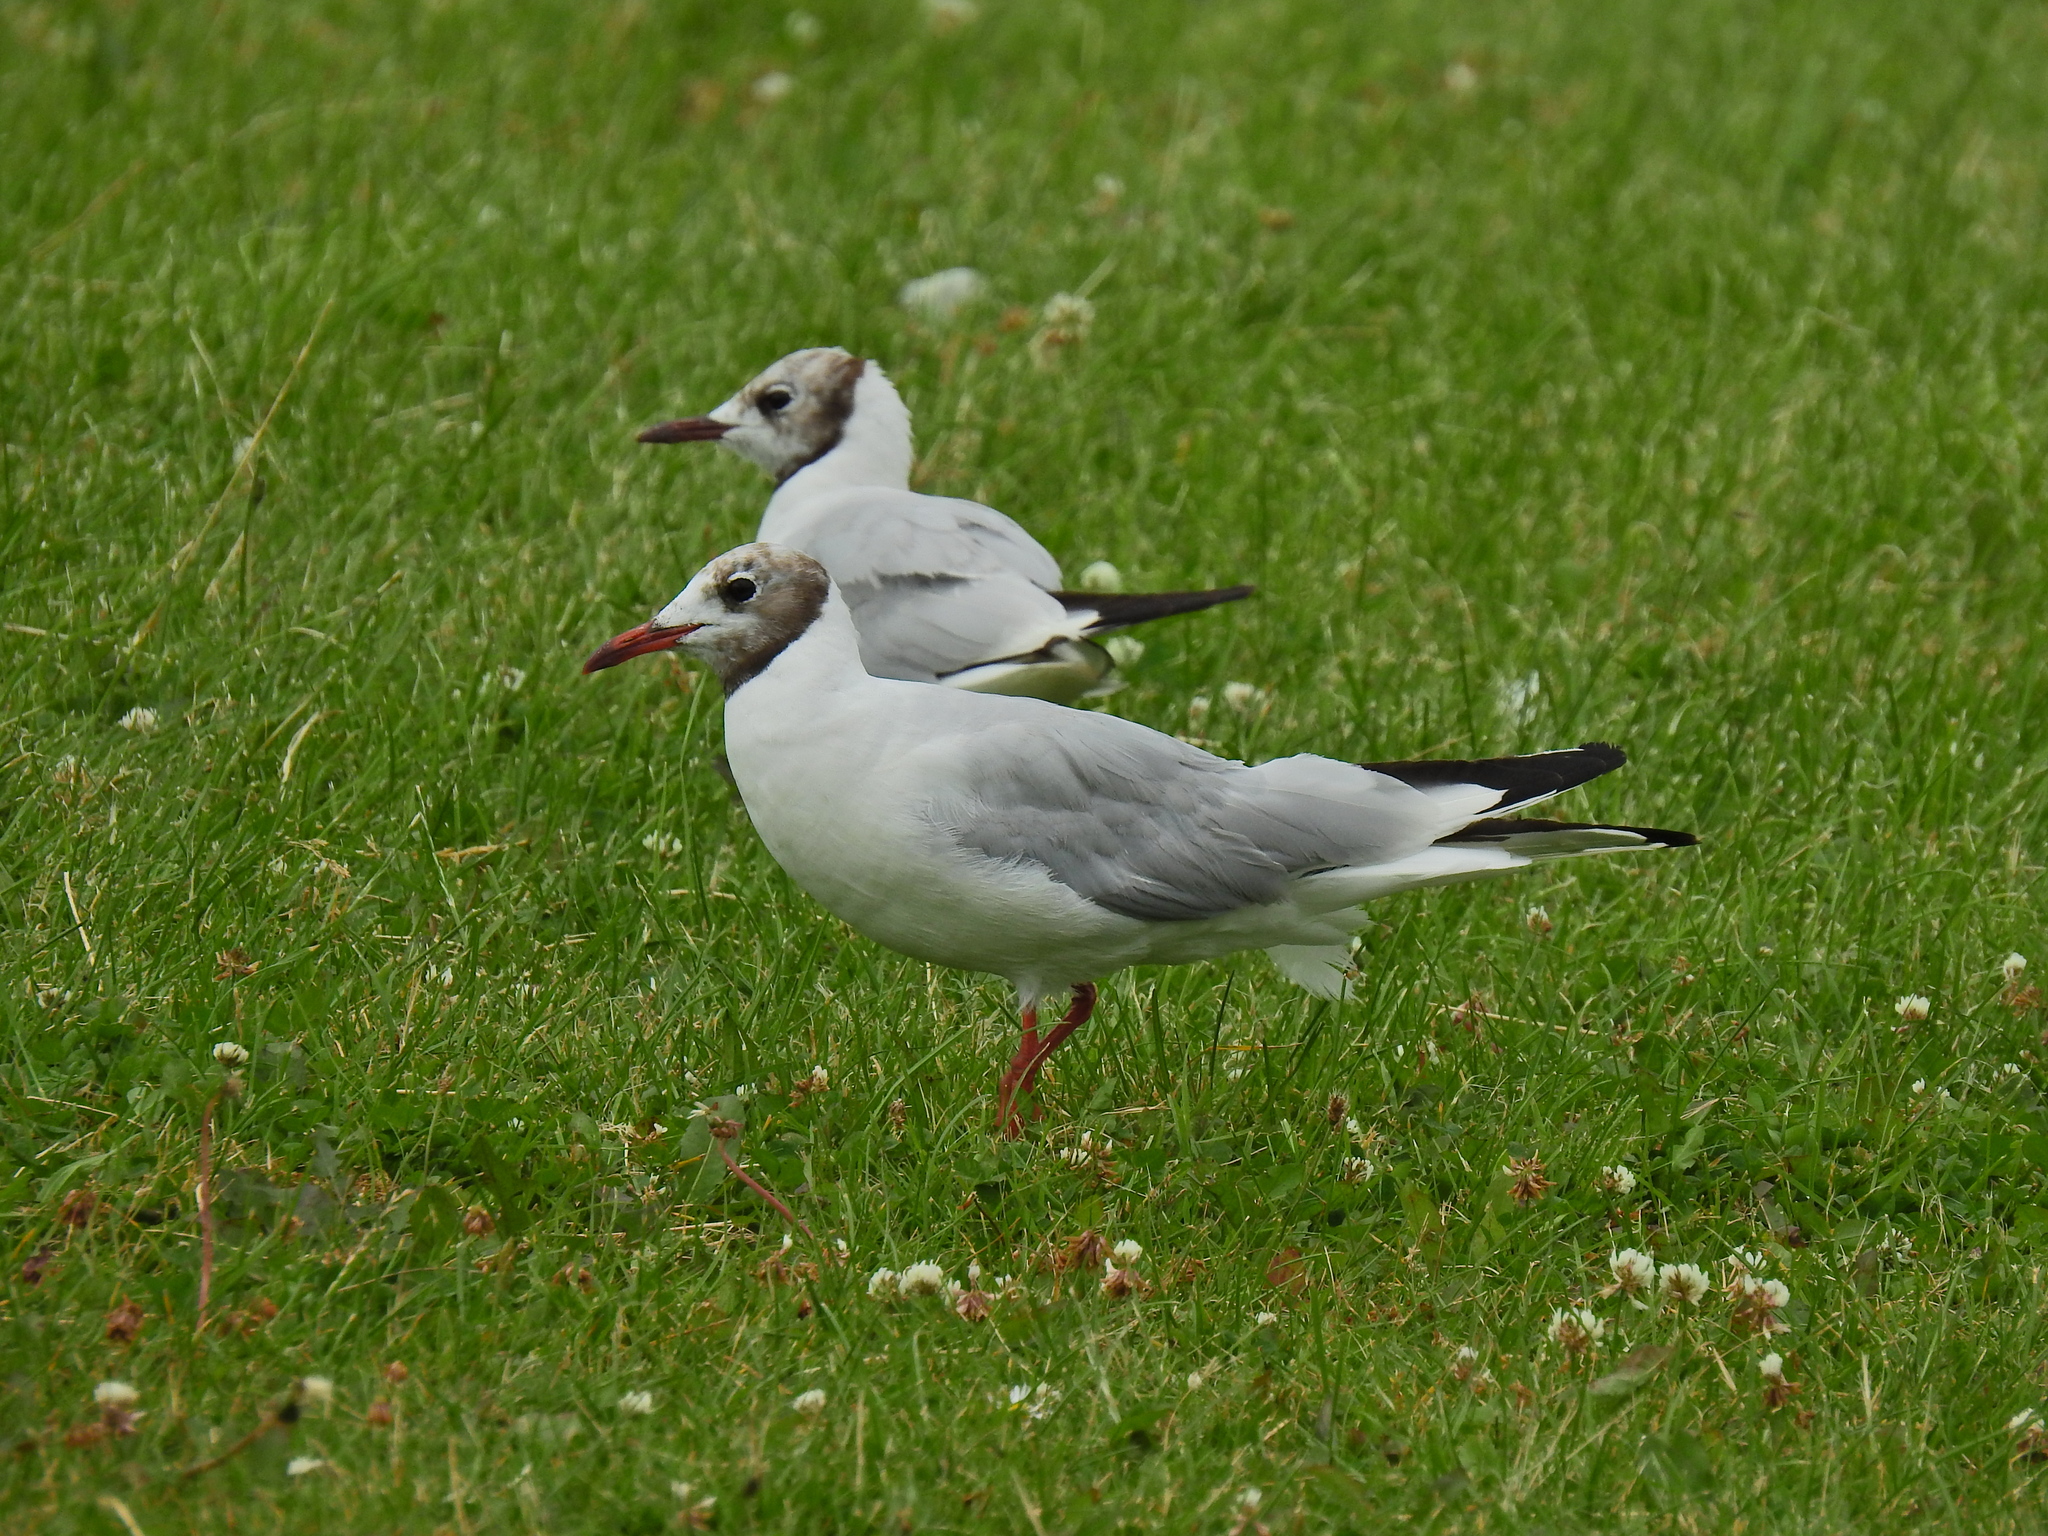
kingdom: Animalia
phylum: Chordata
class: Aves
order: Charadriiformes
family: Laridae
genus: Chroicocephalus
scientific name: Chroicocephalus ridibundus
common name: Black-headed gull
